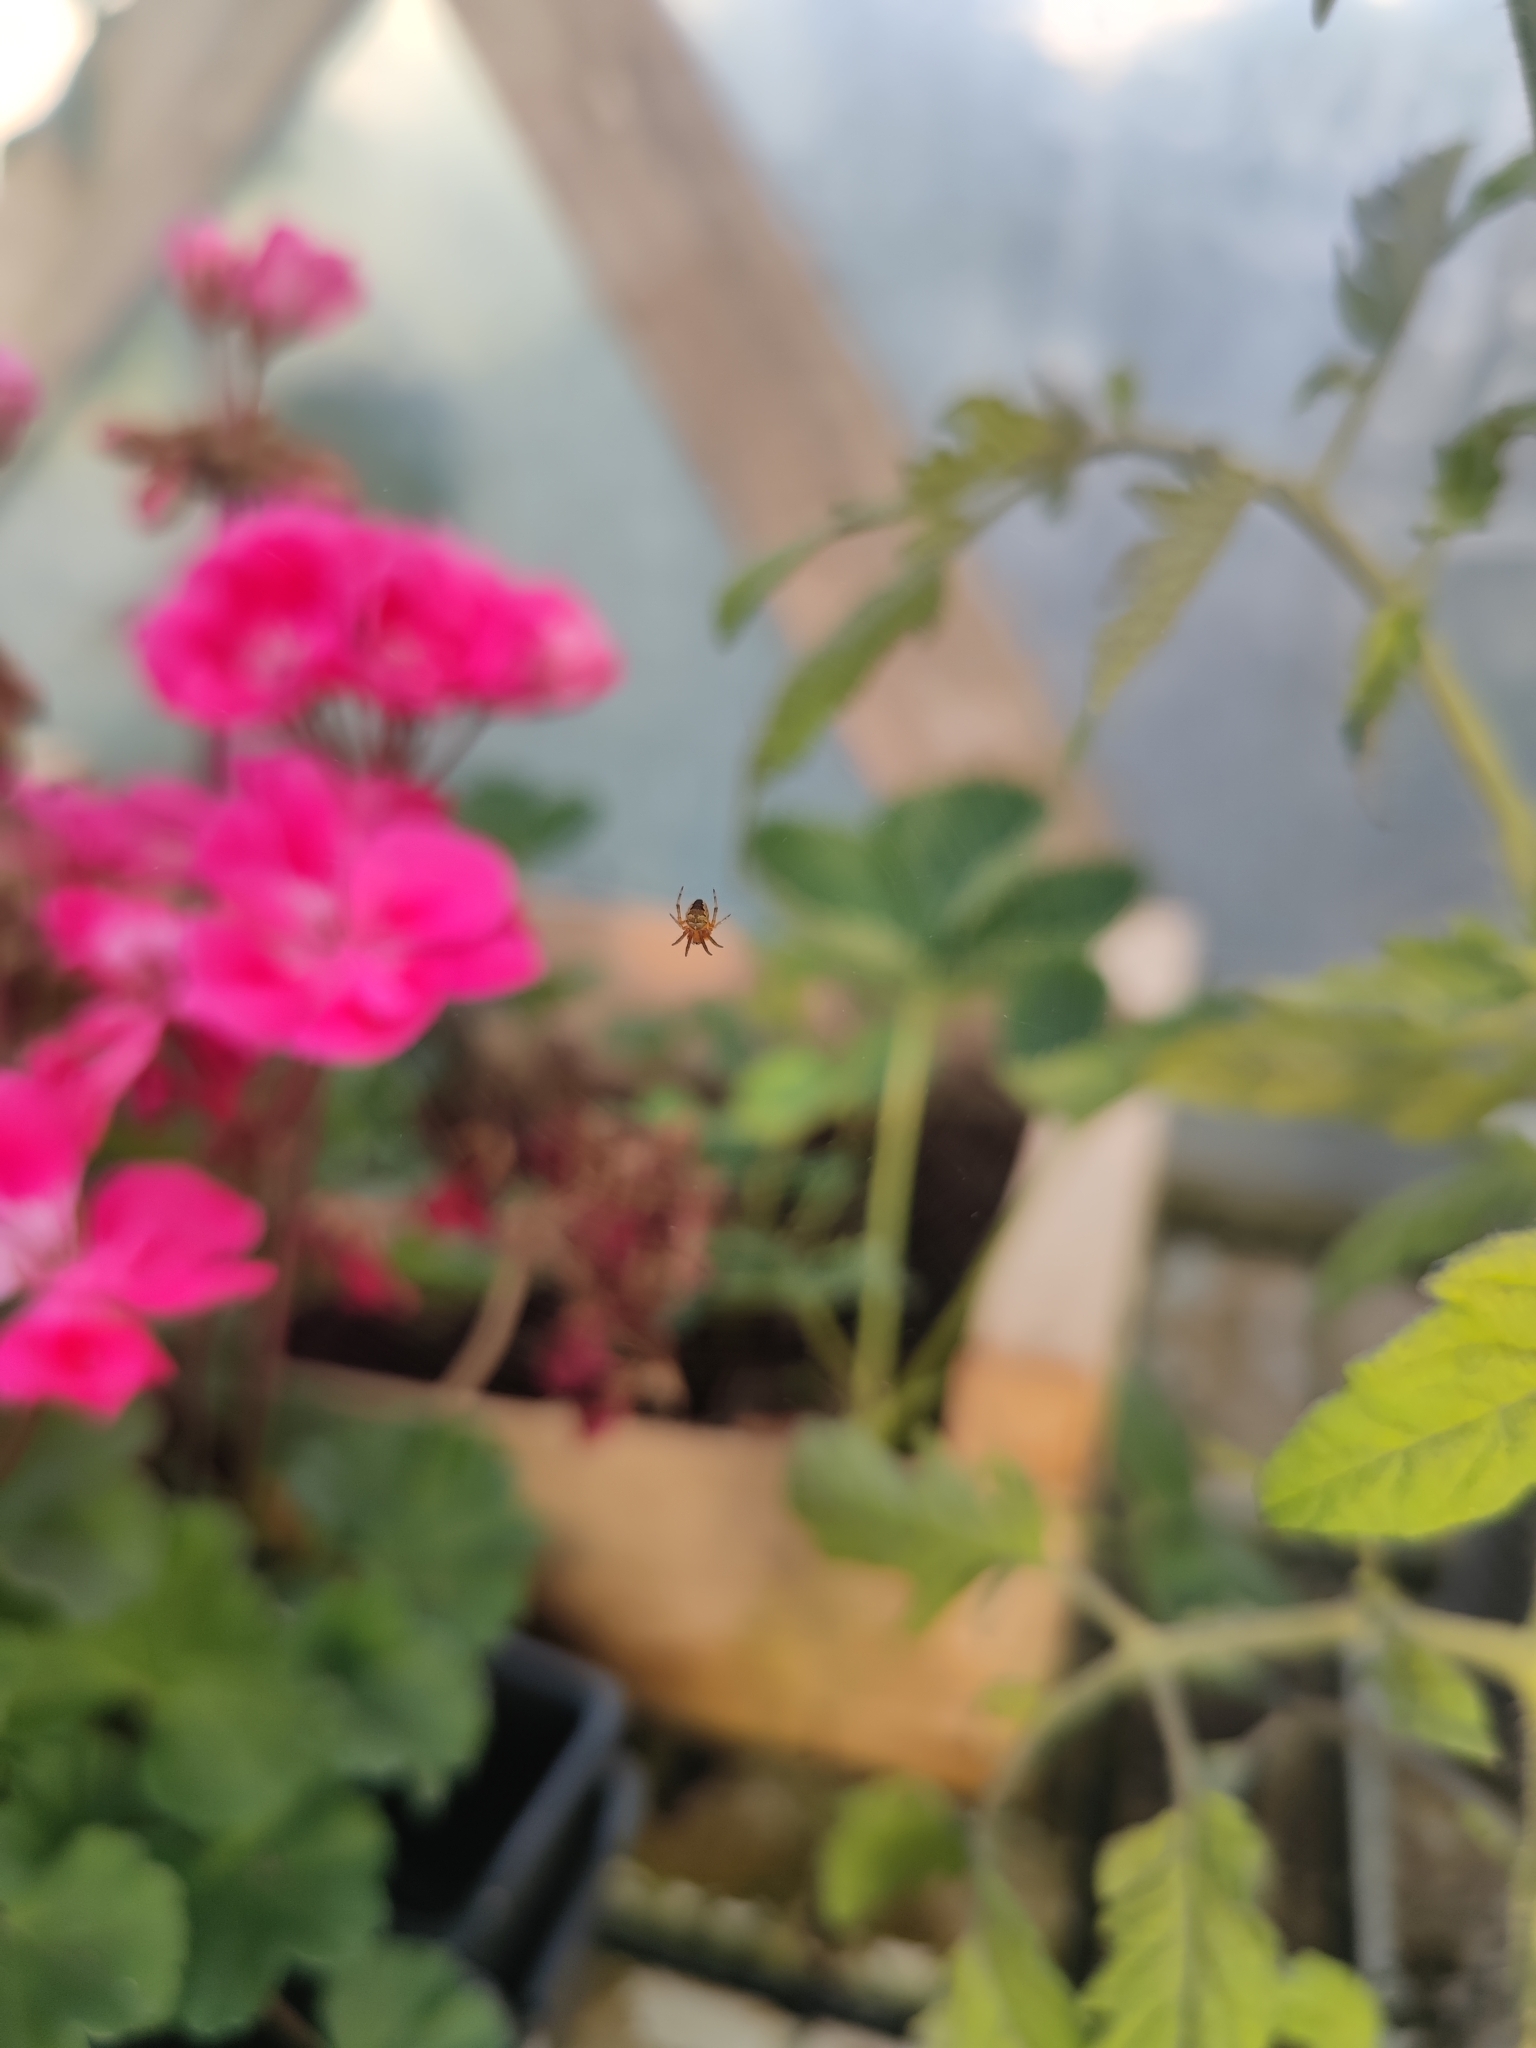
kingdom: Animalia
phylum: Arthropoda
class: Arachnida
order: Araneae
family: Araneidae
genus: Zilla
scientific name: Zilla diodia
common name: Zilla diodia
